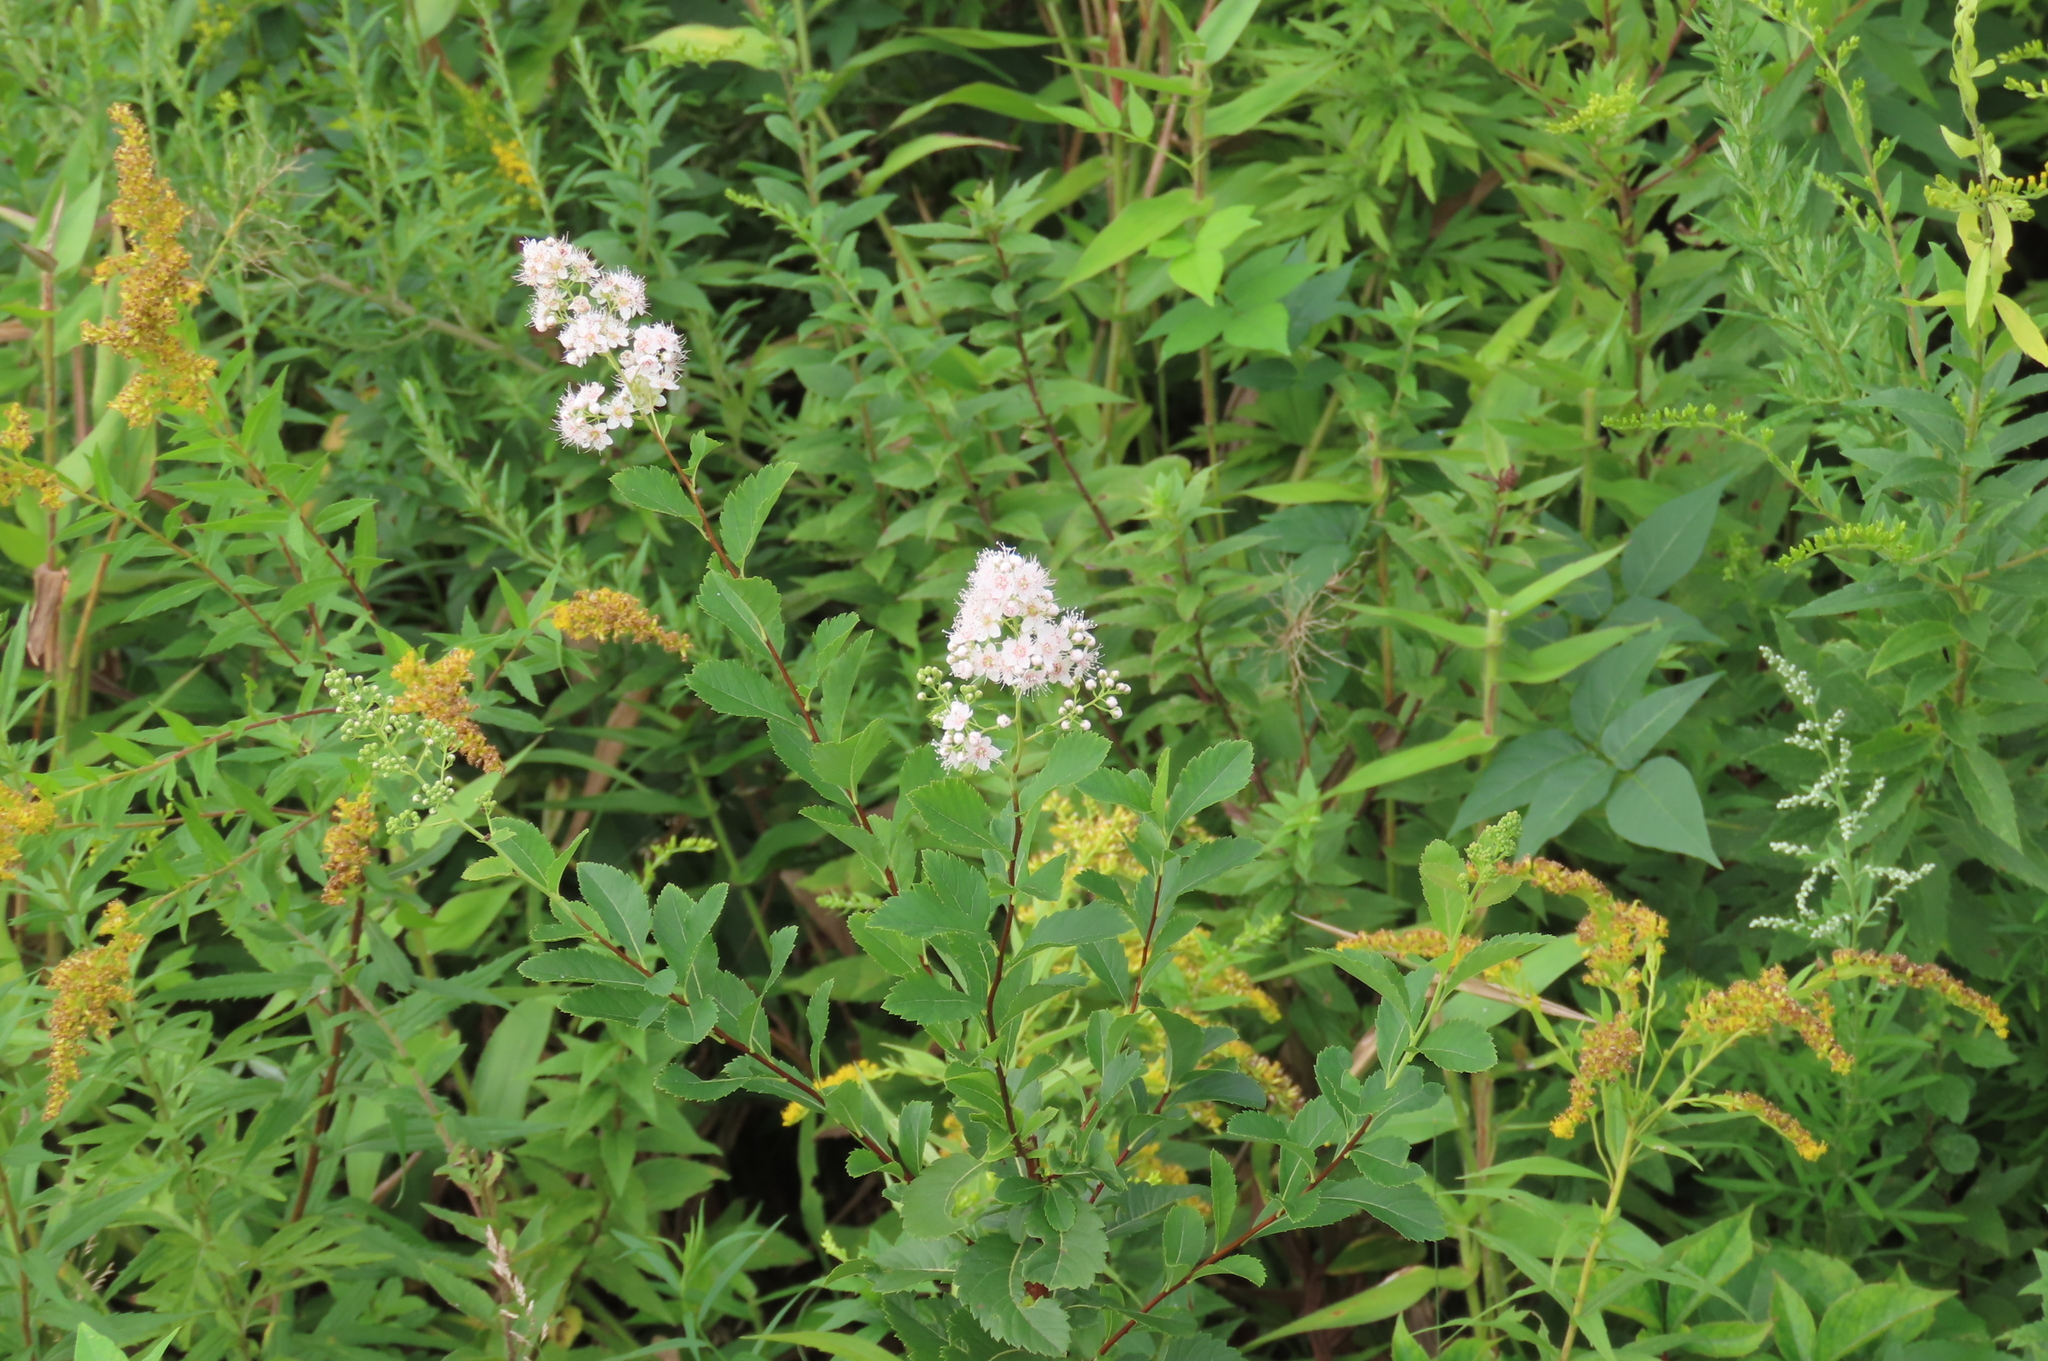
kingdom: Plantae
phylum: Tracheophyta
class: Magnoliopsida
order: Rosales
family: Rosaceae
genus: Spiraea
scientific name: Spiraea alba
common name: Pale bridewort
